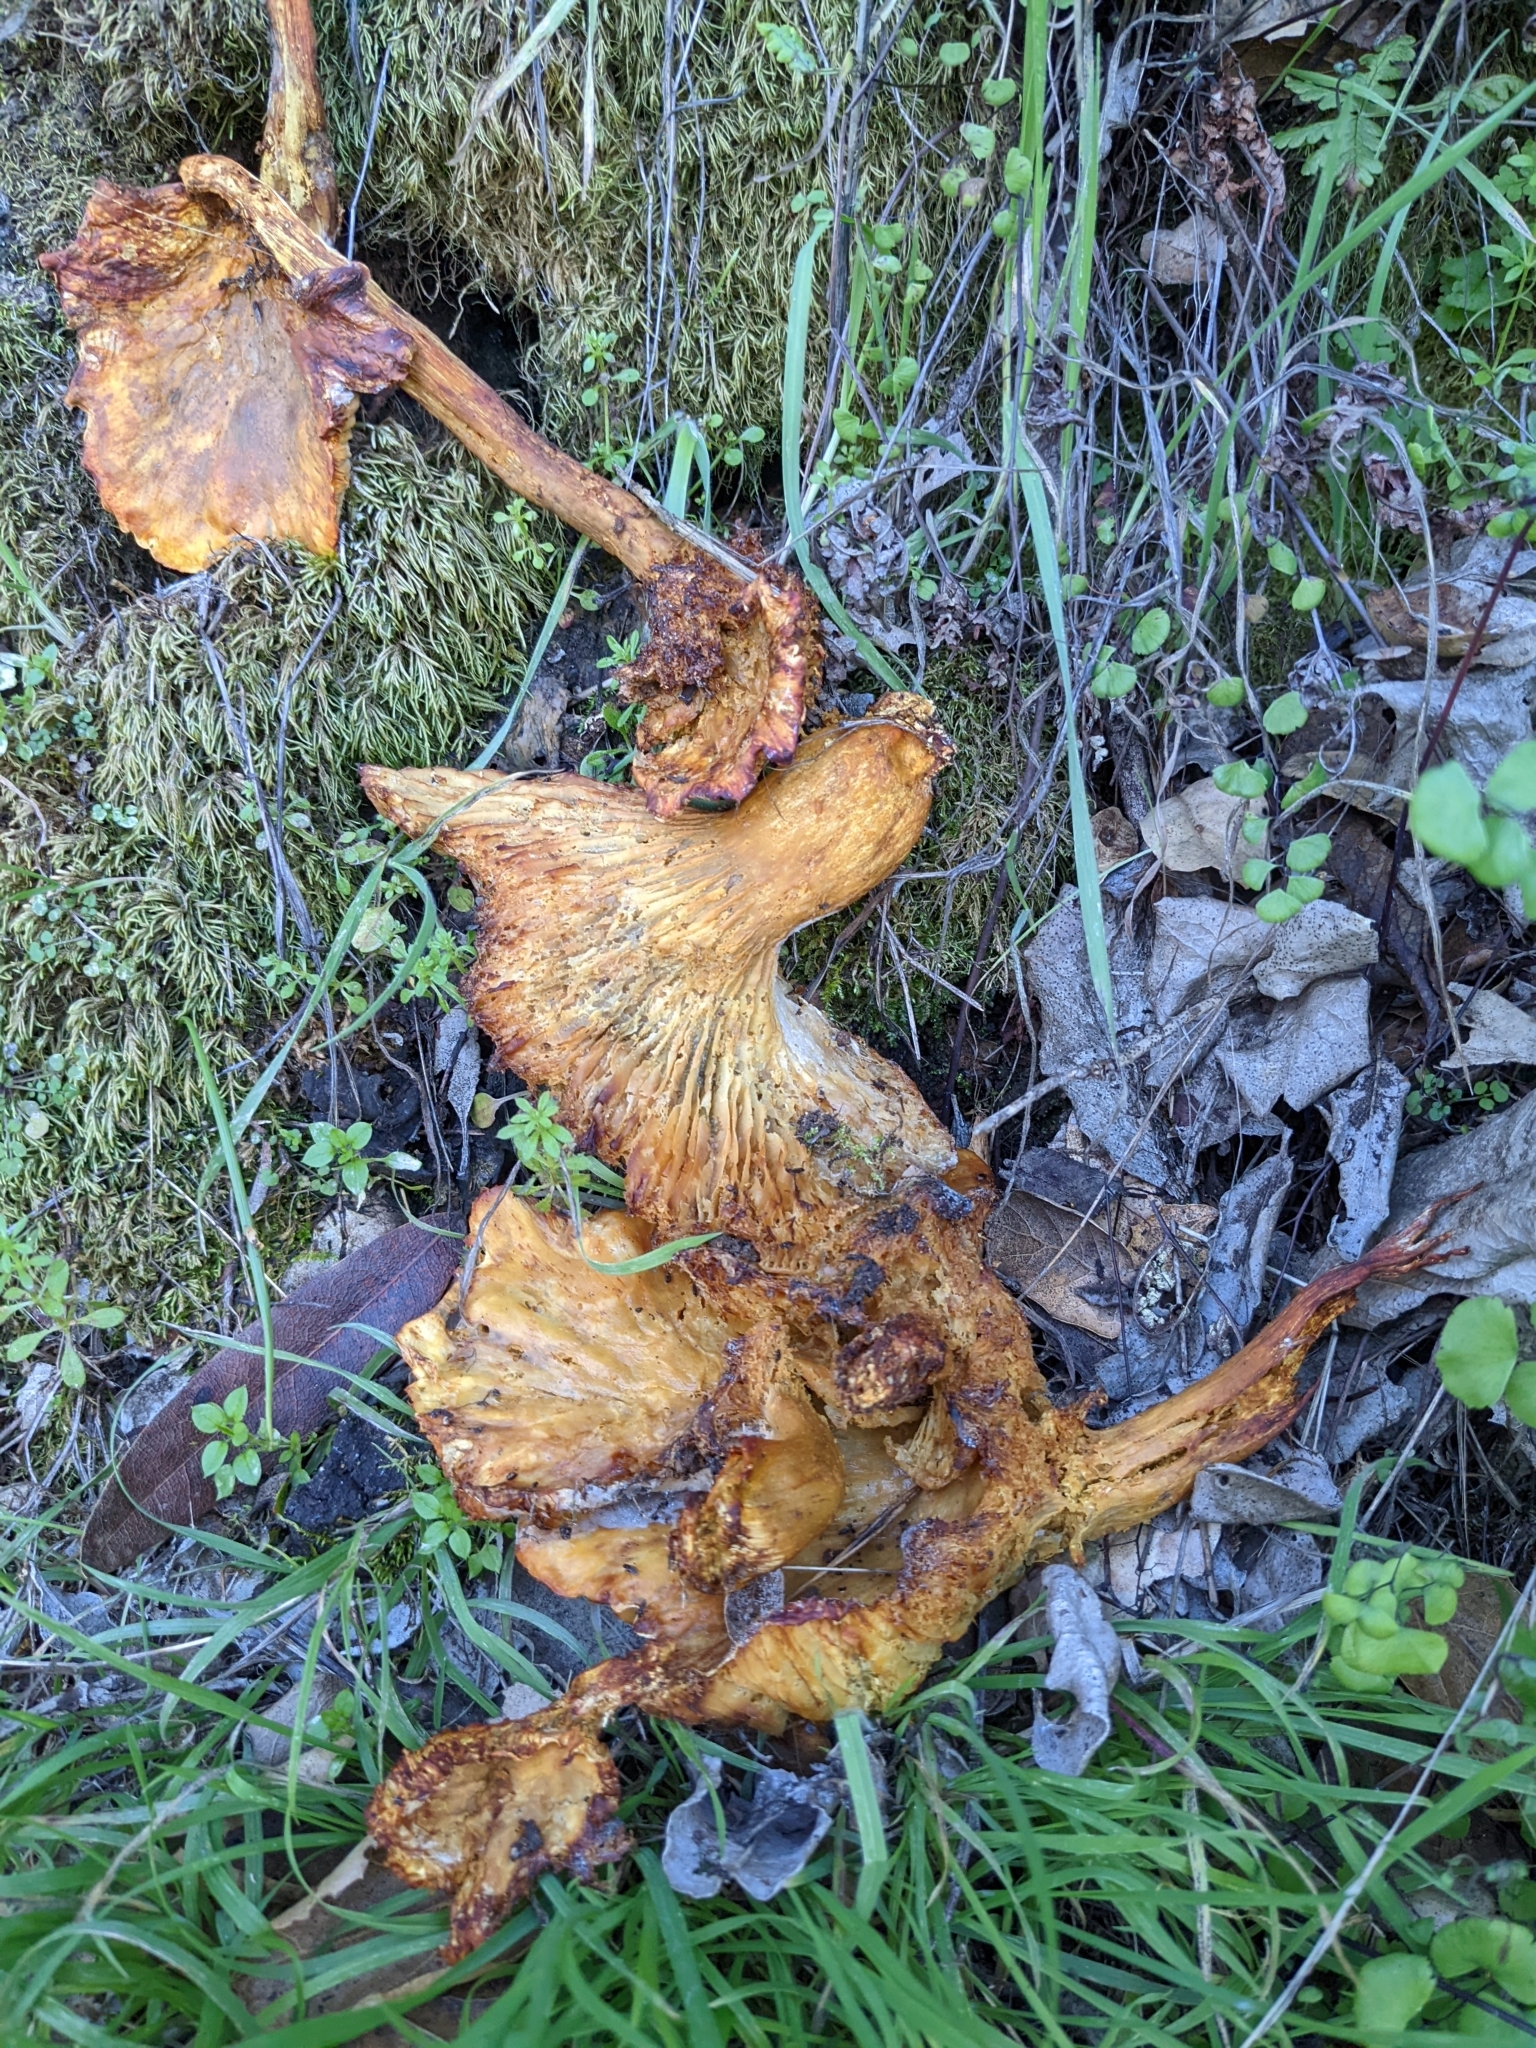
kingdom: Fungi
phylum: Basidiomycota
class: Agaricomycetes
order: Agaricales
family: Omphalotaceae
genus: Omphalotus
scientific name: Omphalotus olivascens
